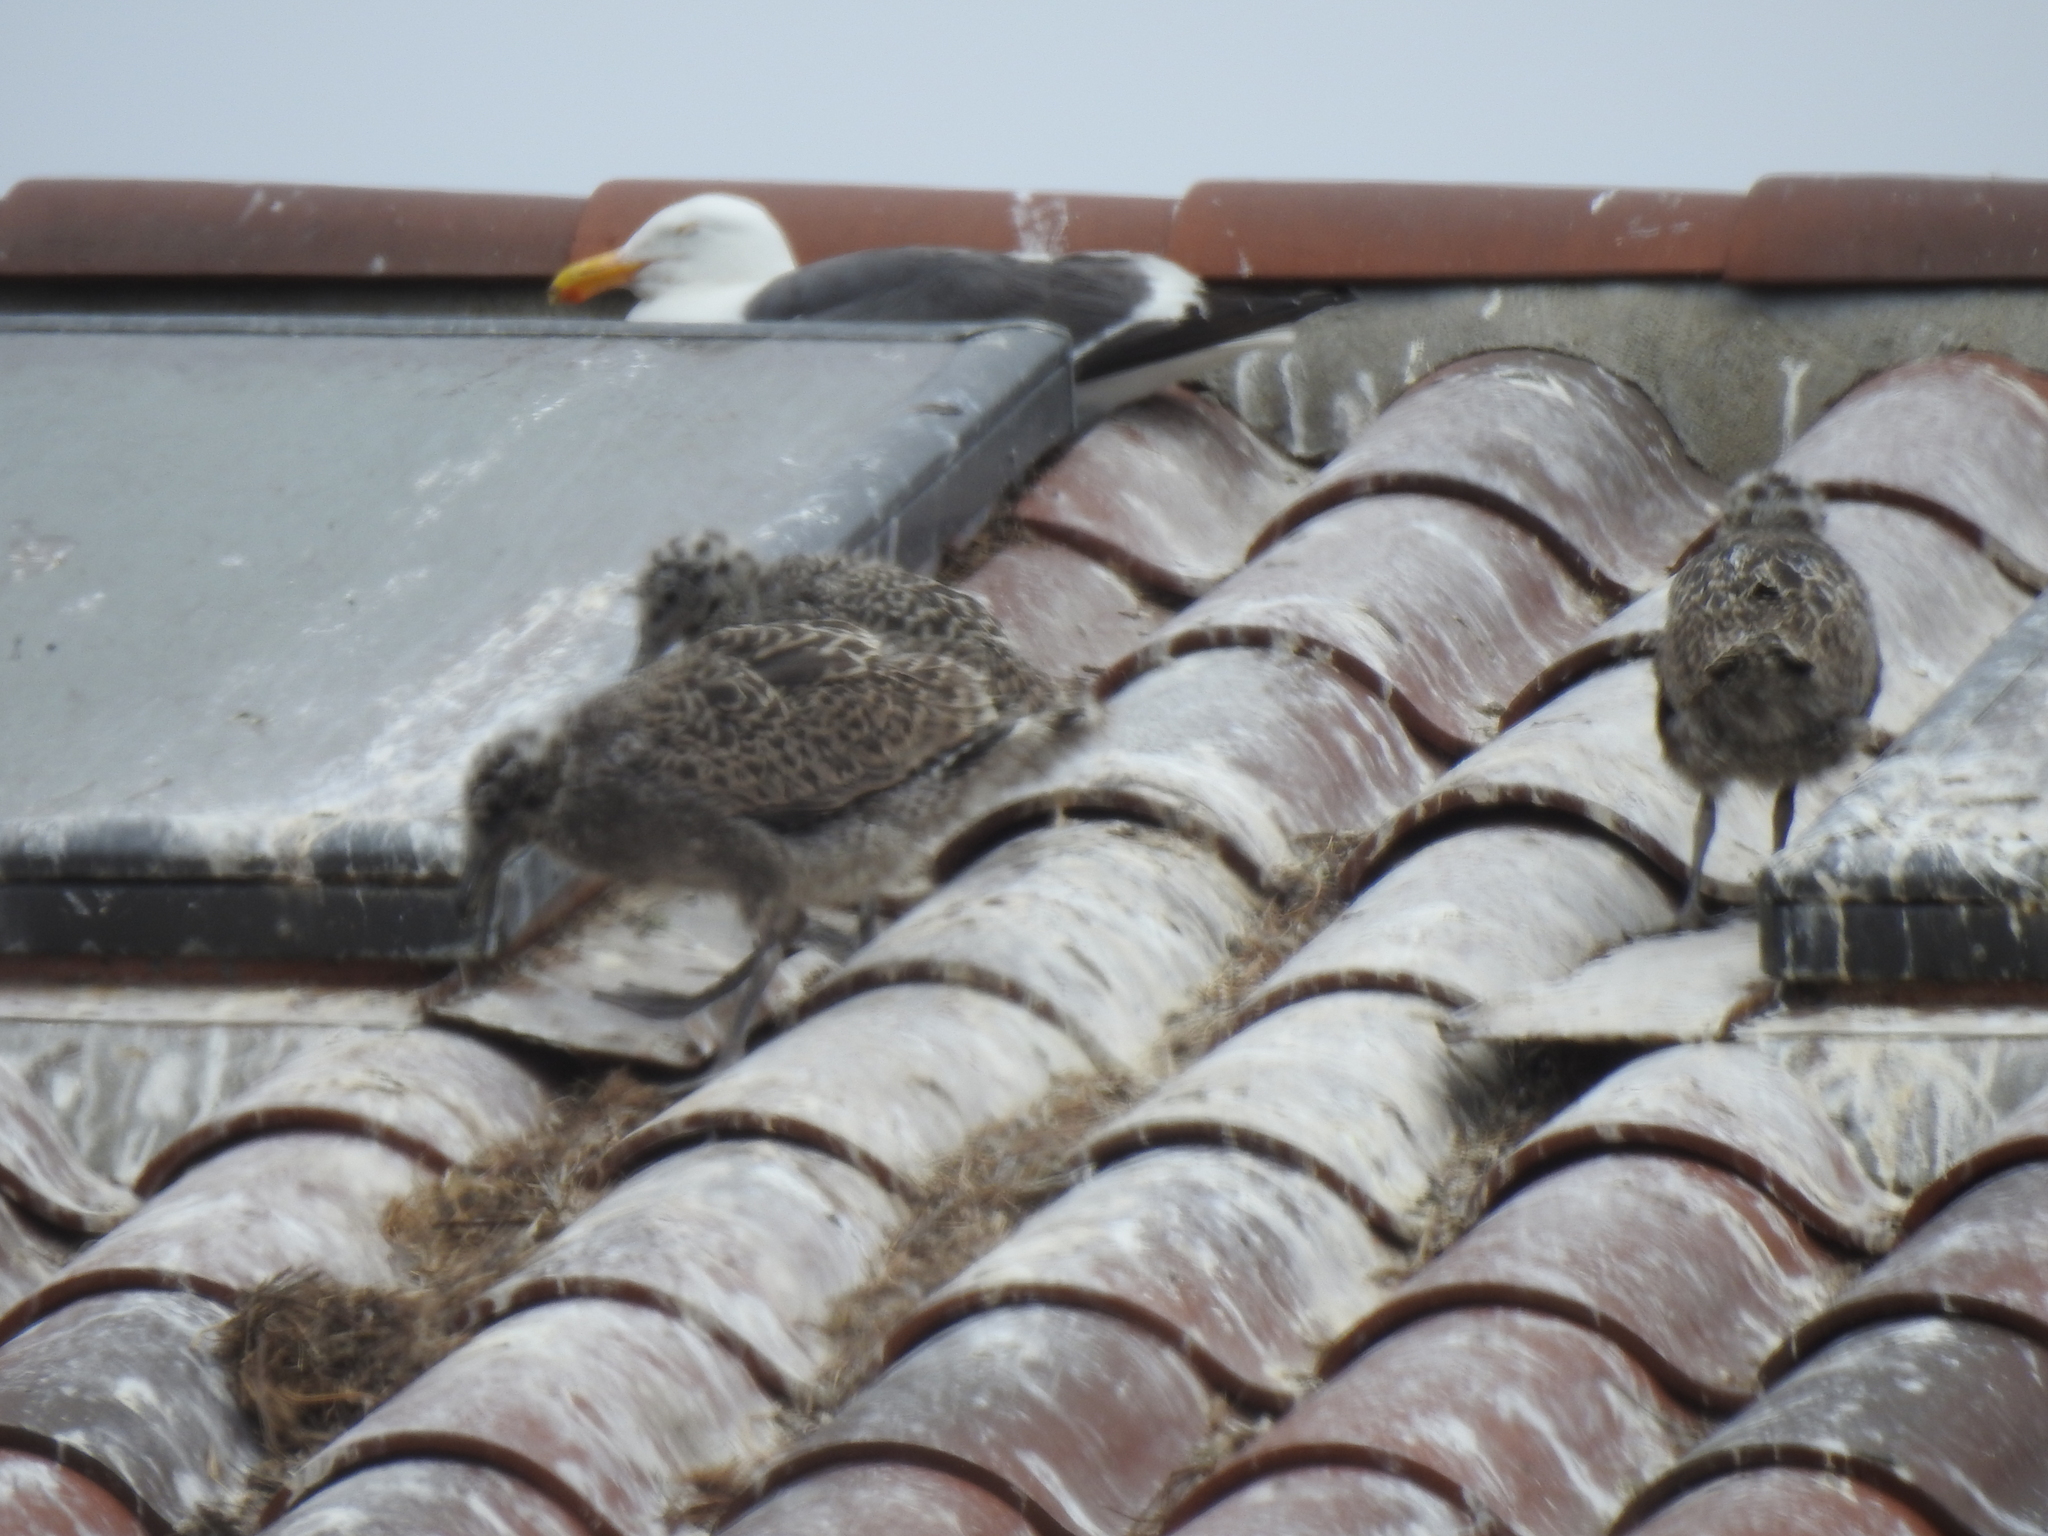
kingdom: Animalia
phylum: Chordata
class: Aves
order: Charadriiformes
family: Laridae
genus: Larus
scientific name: Larus occidentalis
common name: Western gull
